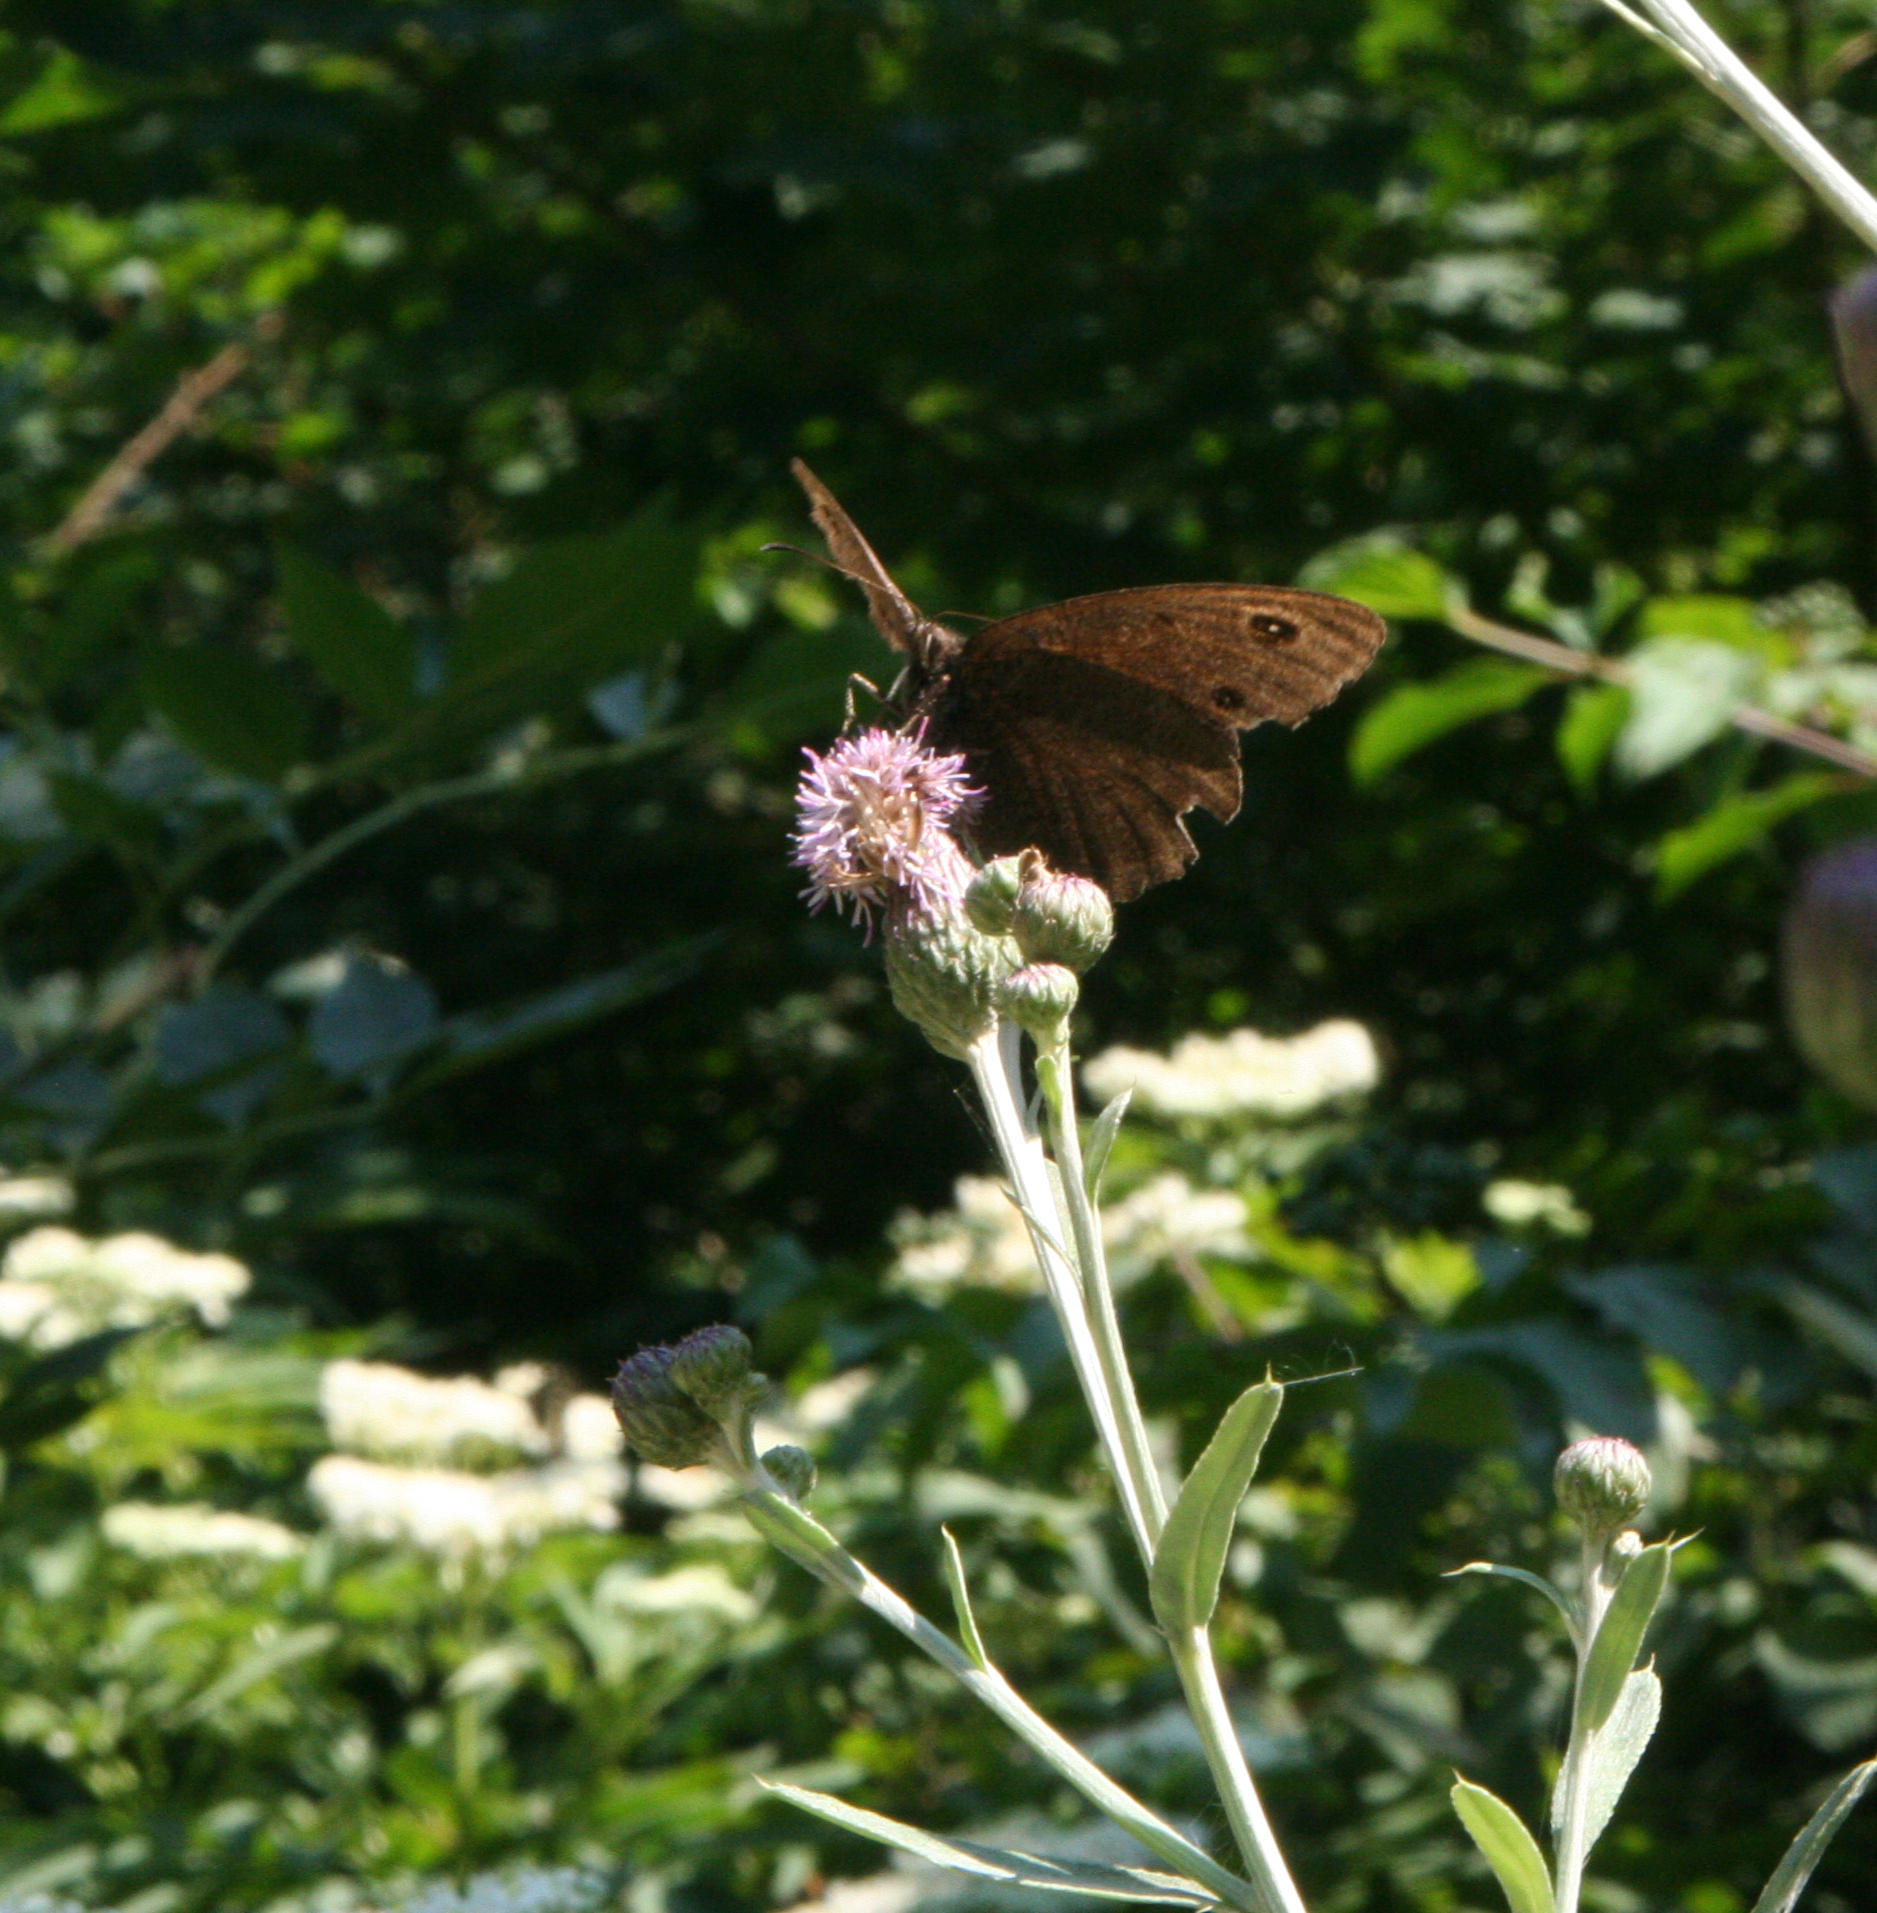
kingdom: Plantae
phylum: Tracheophyta
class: Magnoliopsida
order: Asterales
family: Asteraceae
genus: Cirsium
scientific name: Cirsium arvense
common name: Creeping thistle
